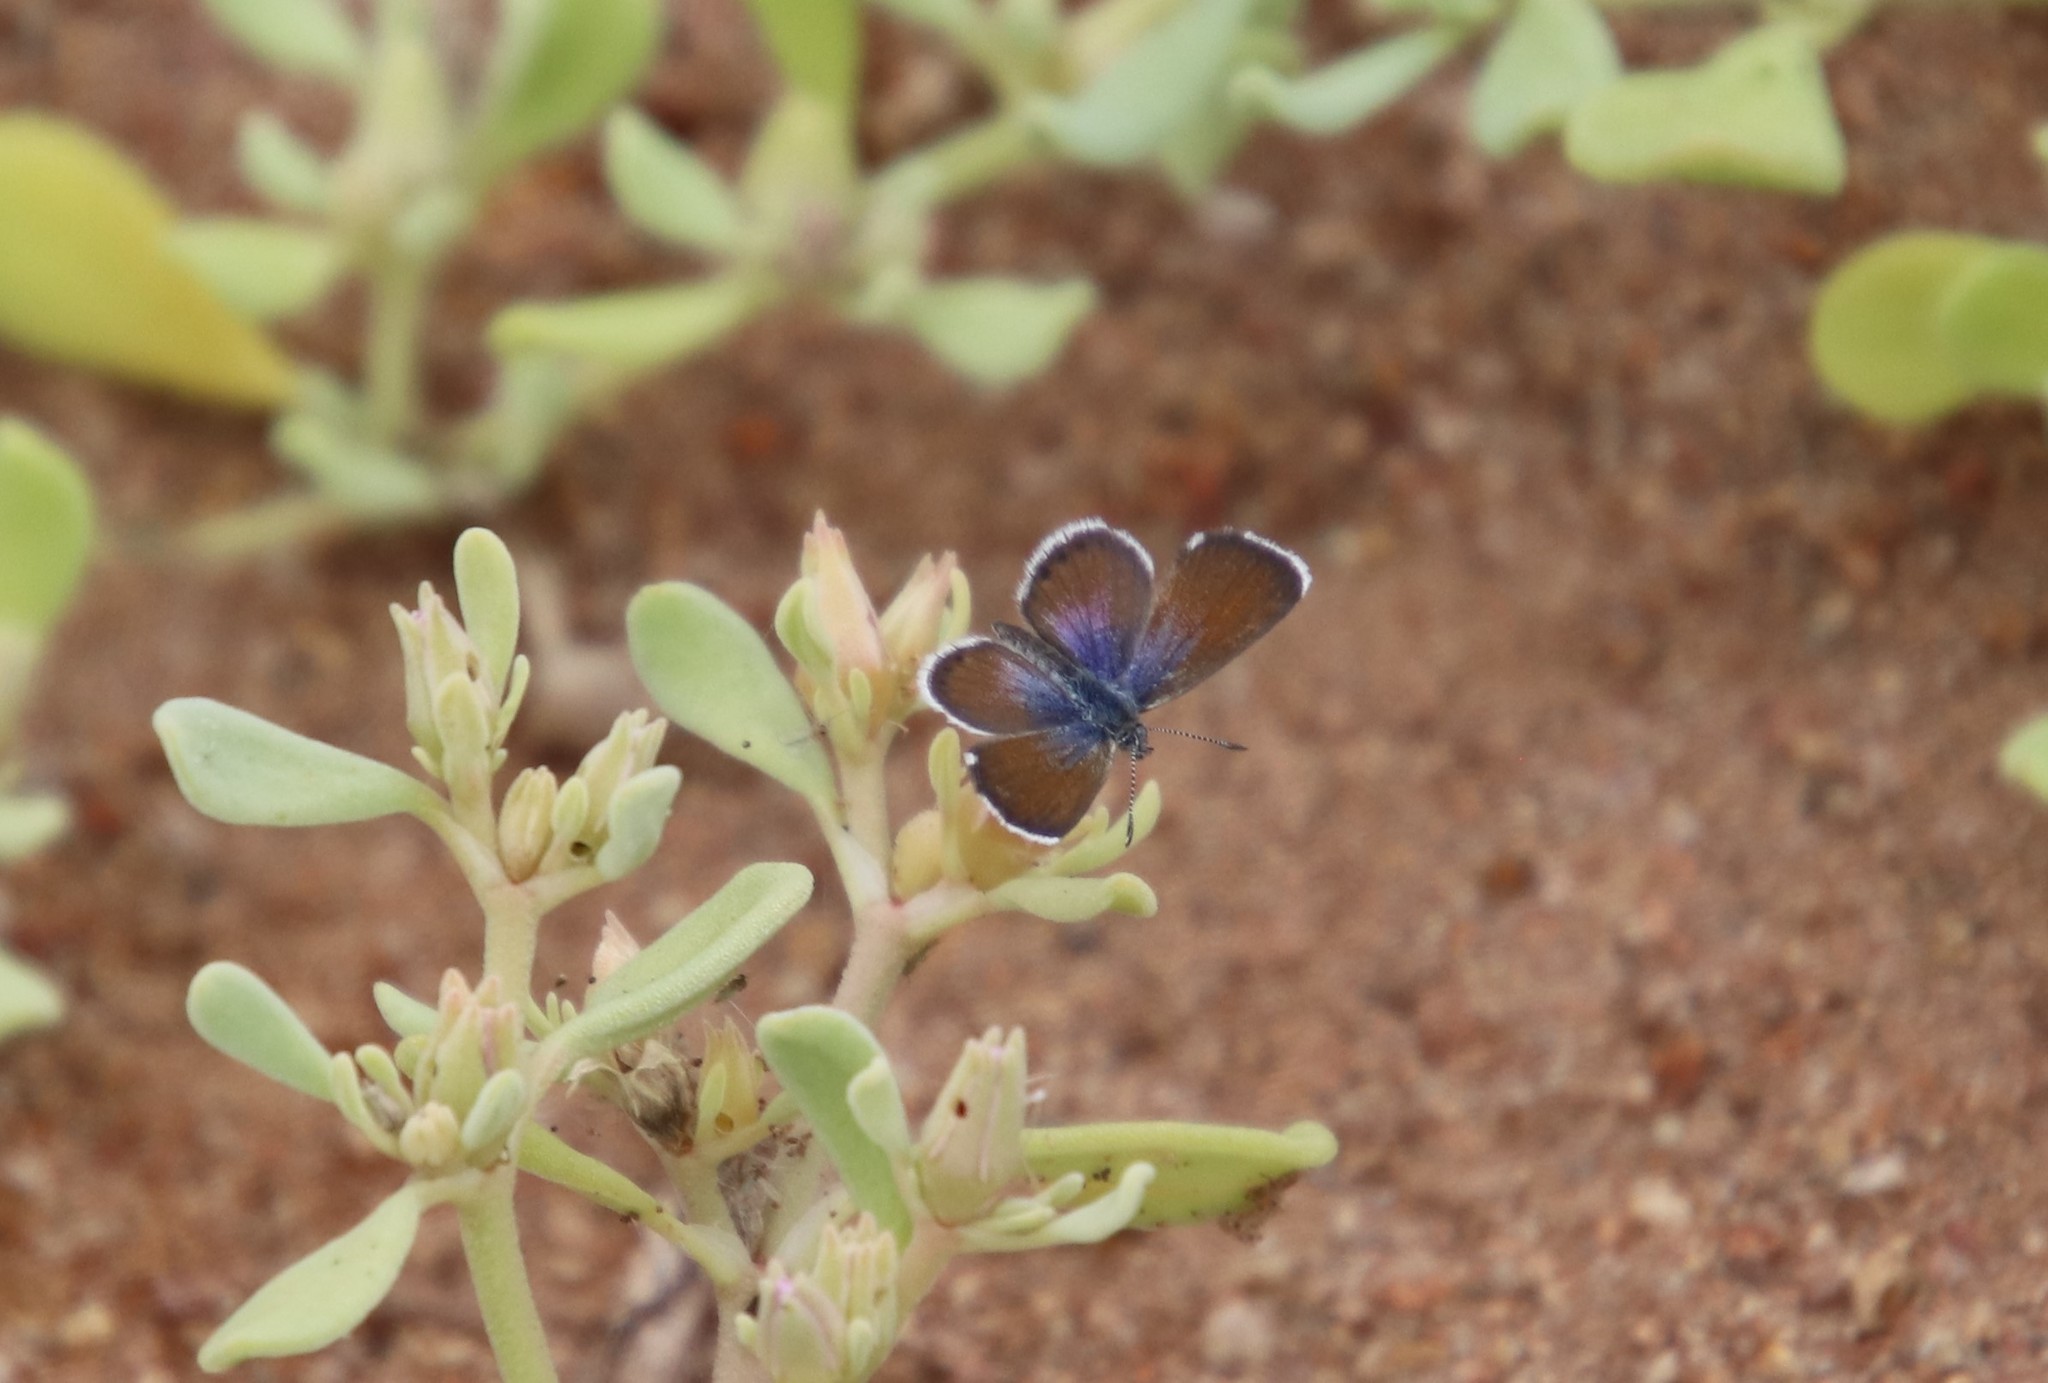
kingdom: Animalia
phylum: Arthropoda
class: Insecta
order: Lepidoptera
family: Lycaenidae
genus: Brephidium
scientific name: Brephidium exilis
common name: Pygmy blue
